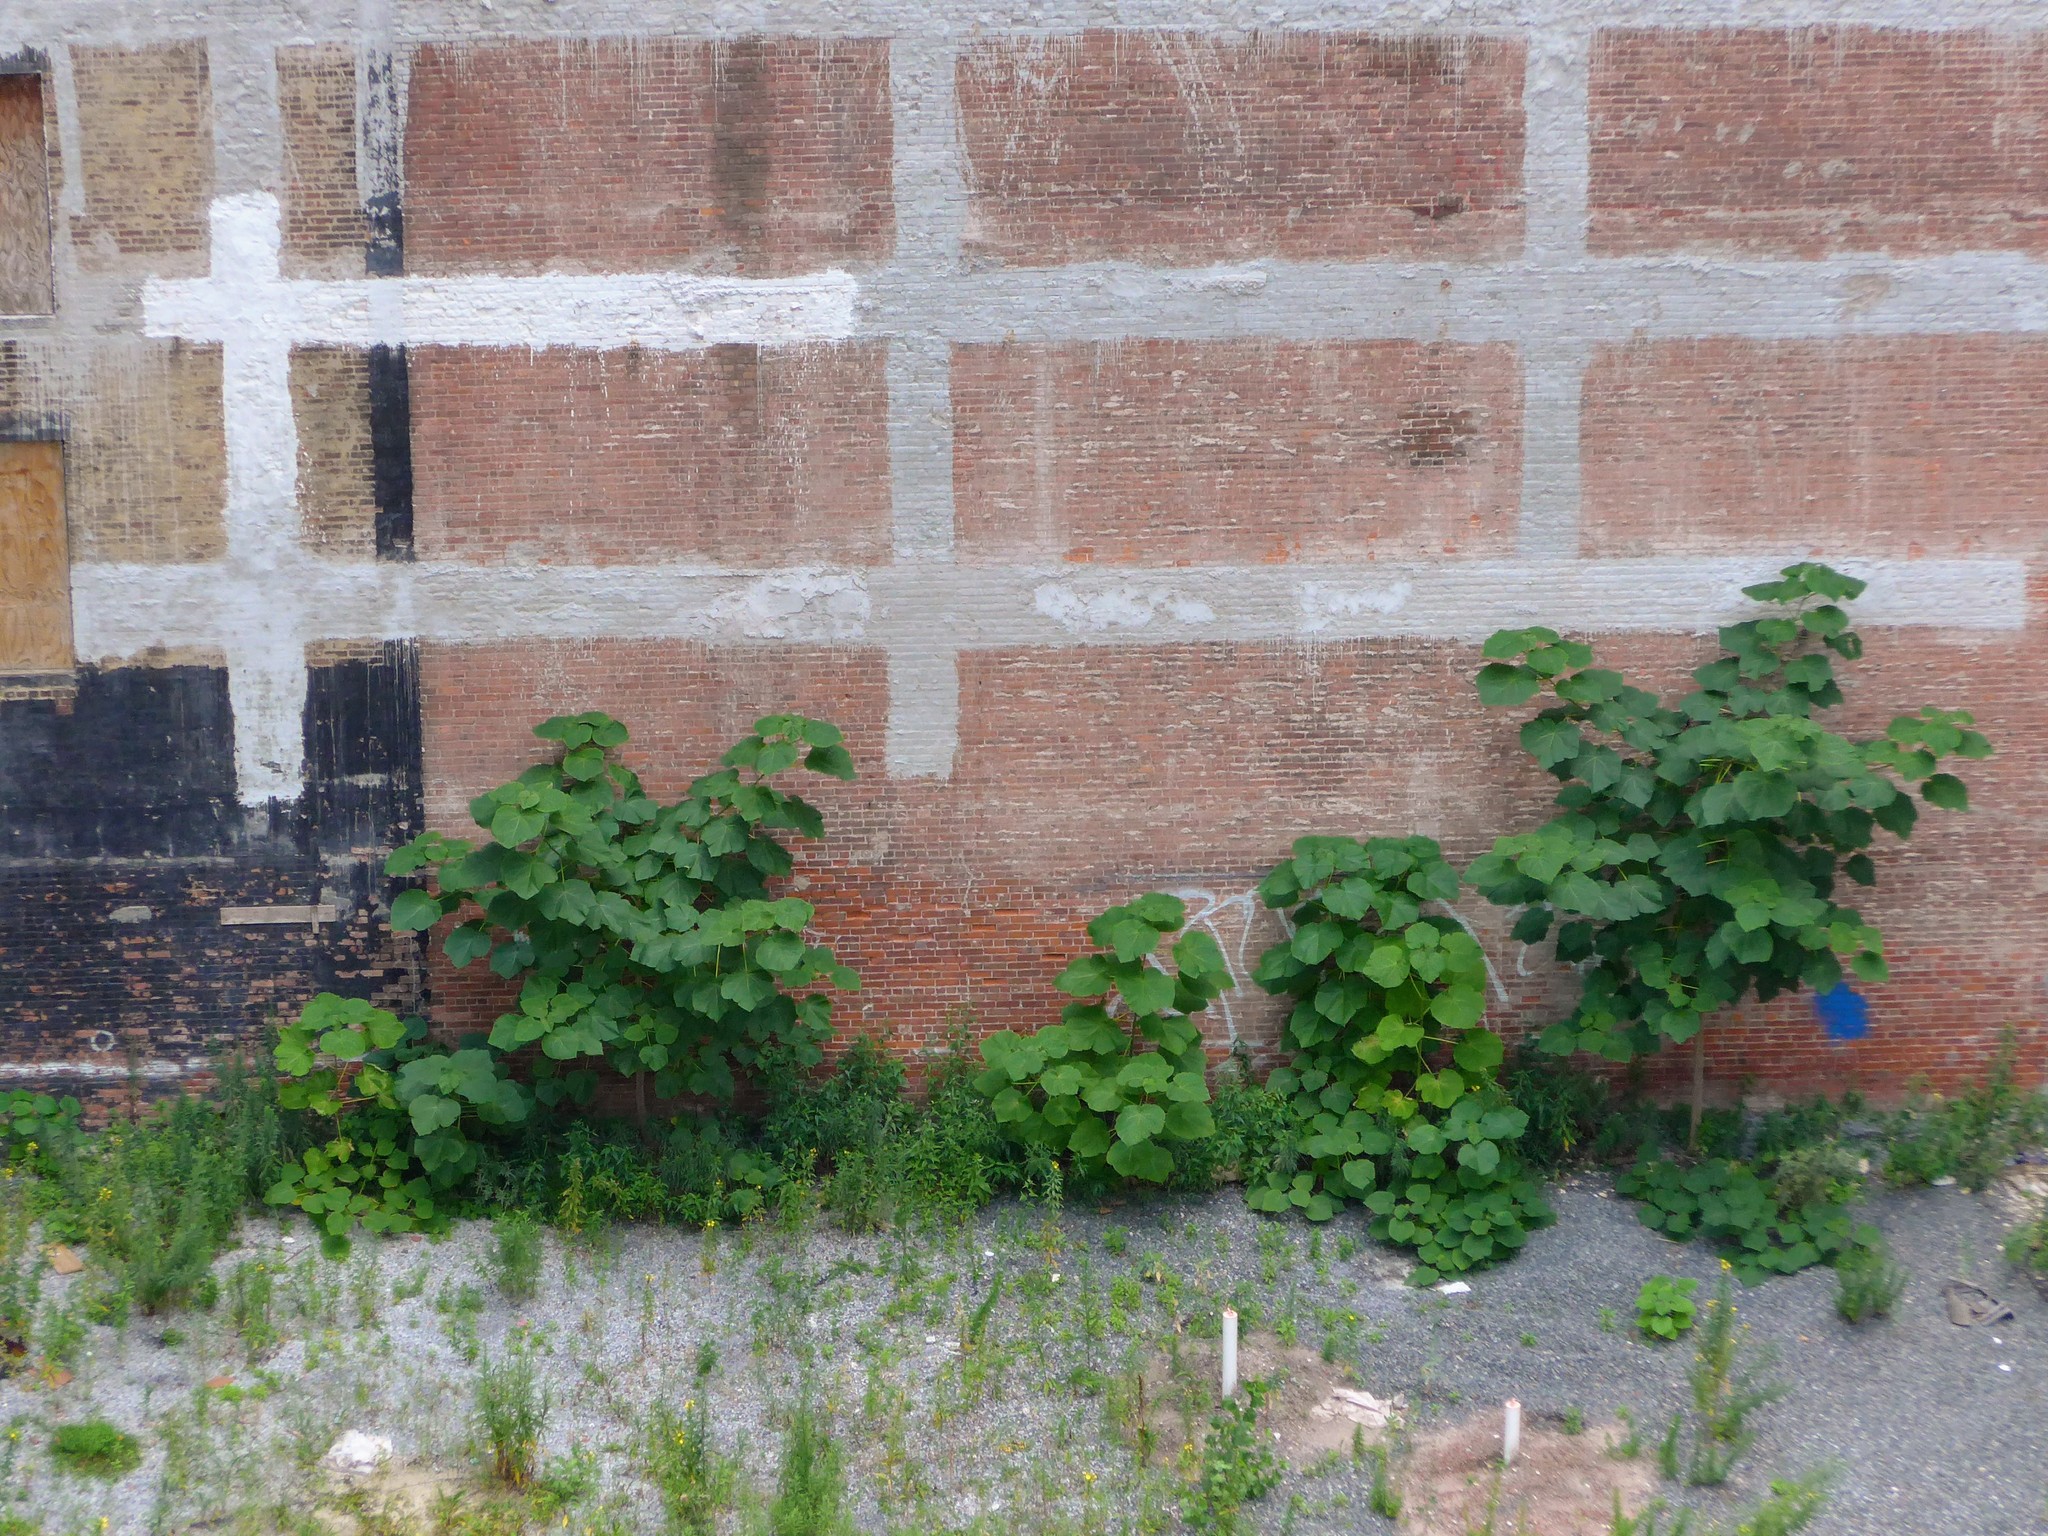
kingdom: Plantae
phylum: Tracheophyta
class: Magnoliopsida
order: Lamiales
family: Paulowniaceae
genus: Paulownia
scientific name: Paulownia tomentosa
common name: Foxglove-tree
